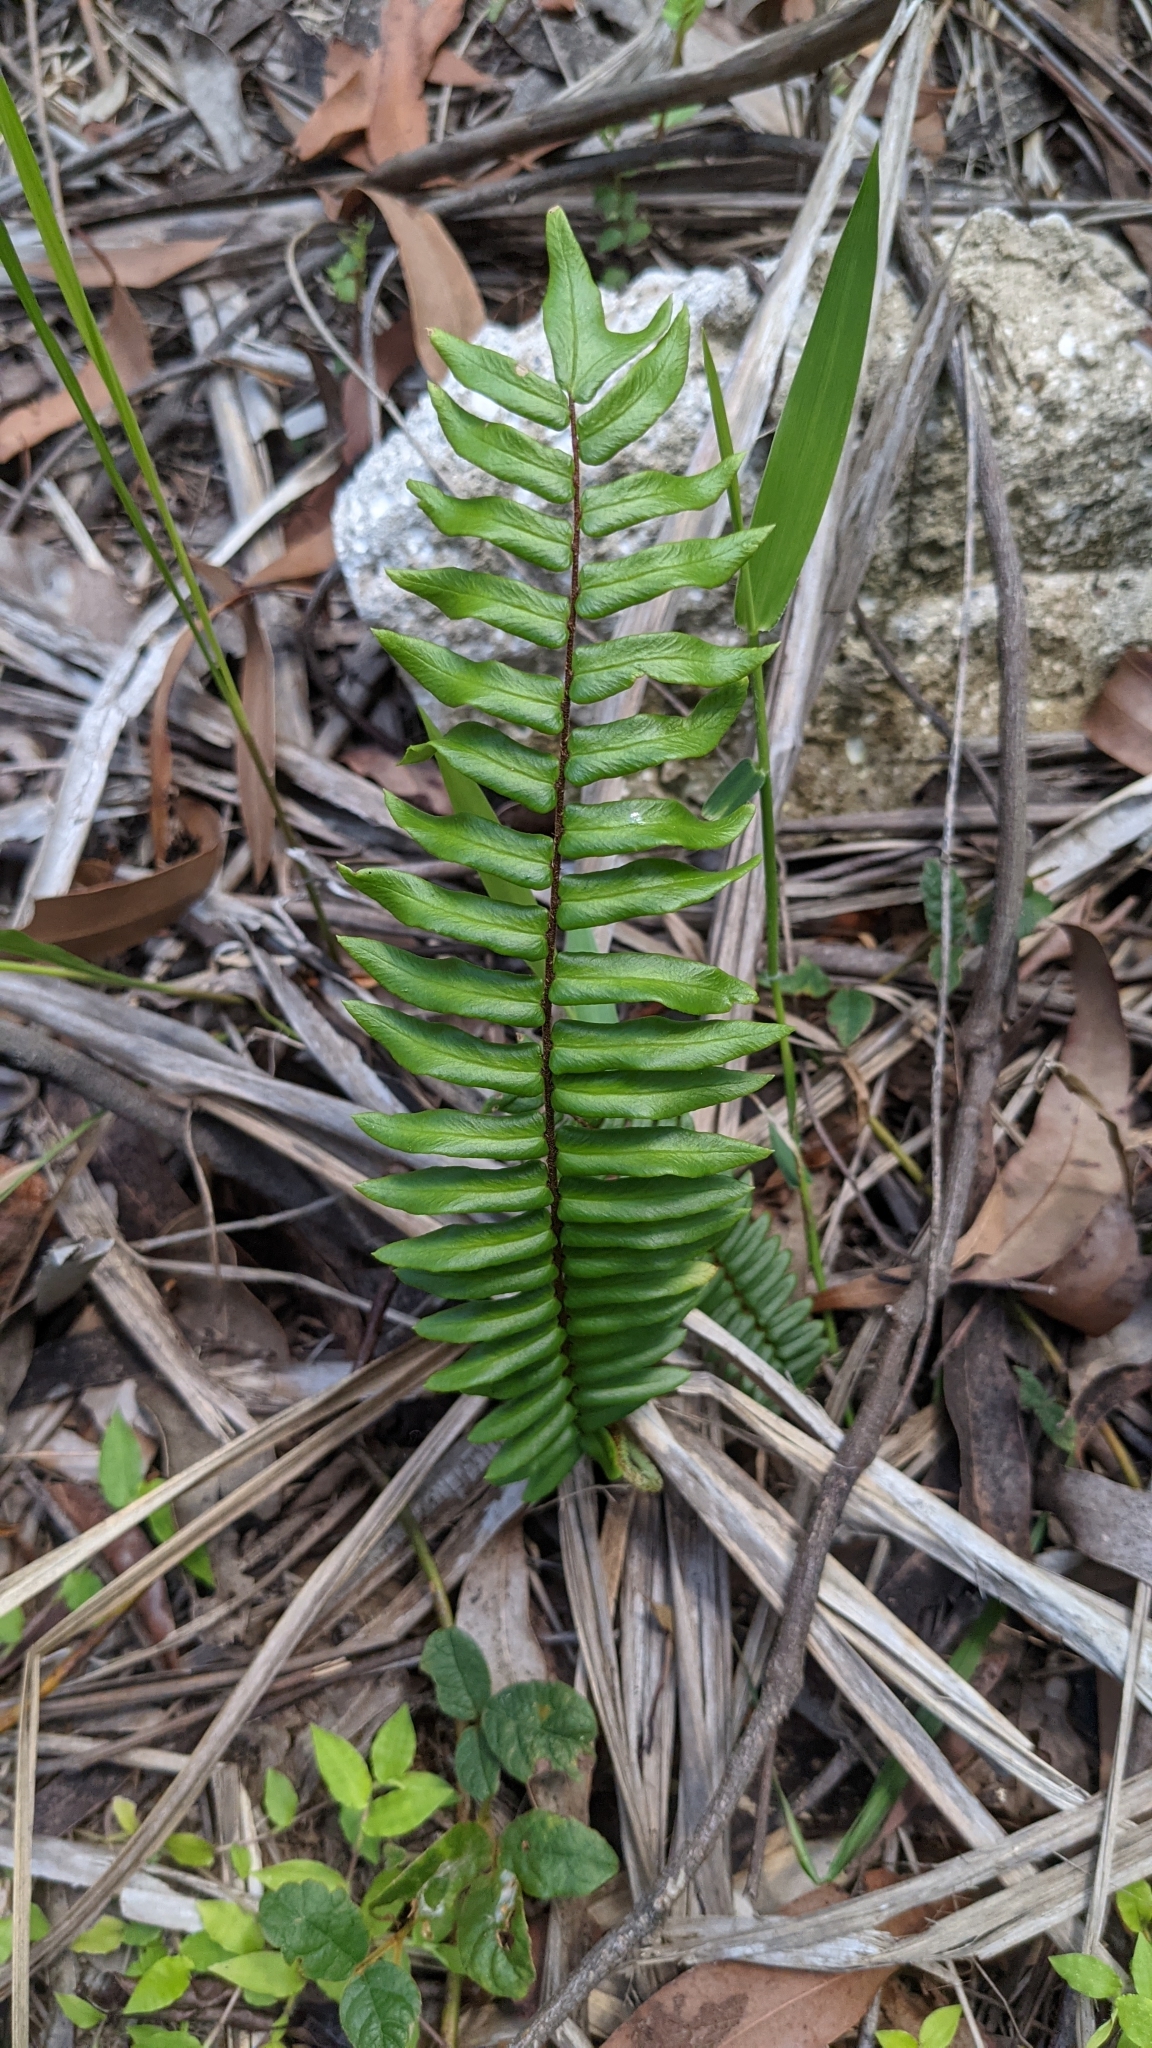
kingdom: Plantae
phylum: Tracheophyta
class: Polypodiopsida
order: Polypodiales
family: Pteridaceae
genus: Pellaea
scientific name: Pellaea falcata
